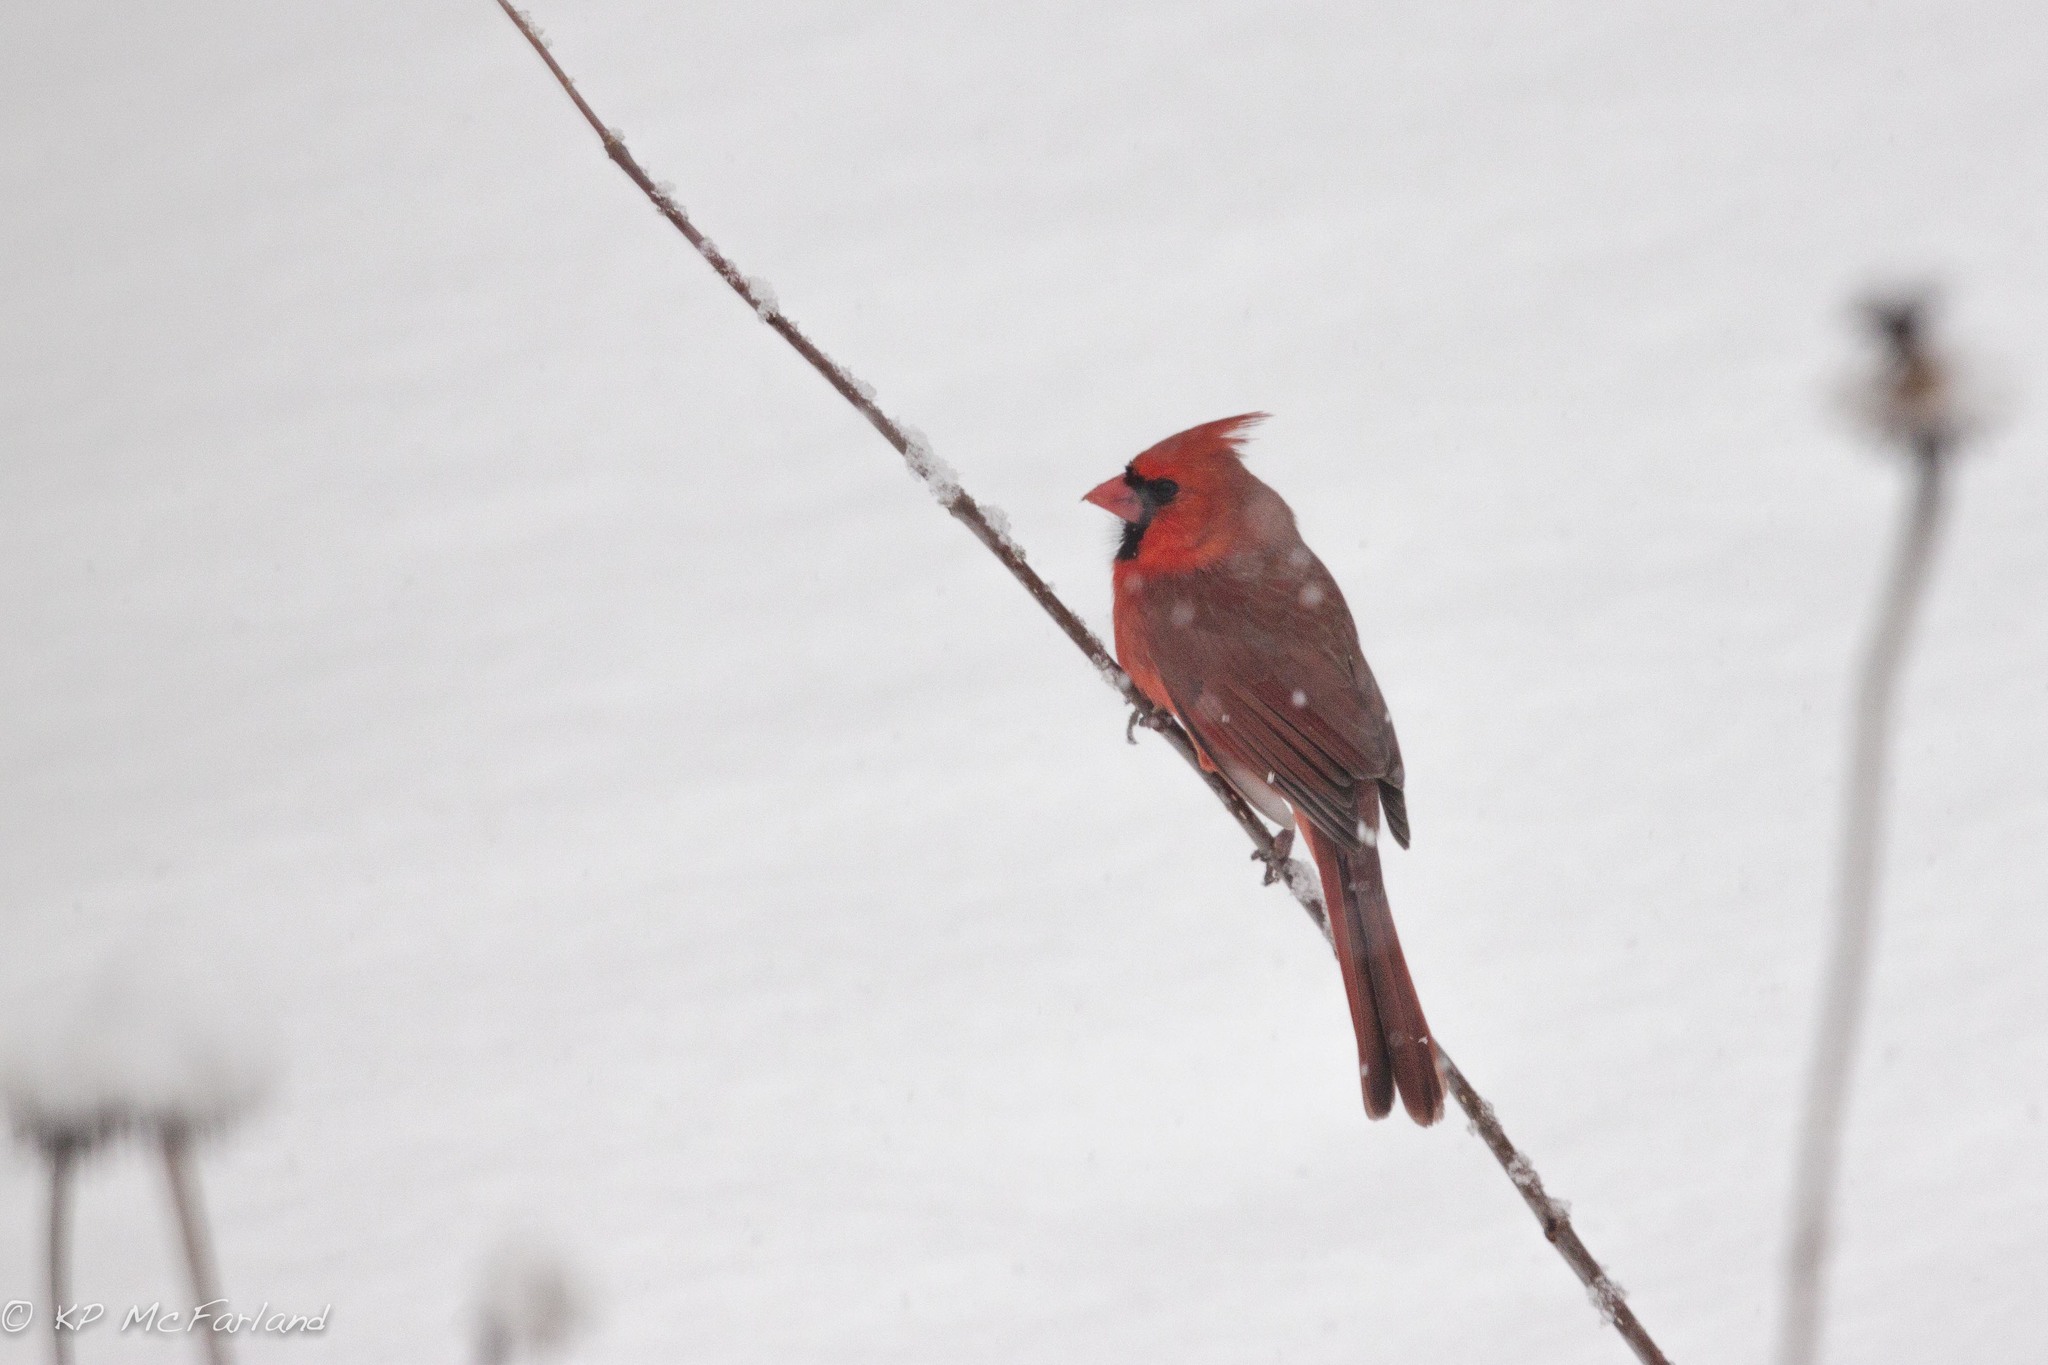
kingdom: Animalia
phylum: Chordata
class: Aves
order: Passeriformes
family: Cardinalidae
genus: Cardinalis
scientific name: Cardinalis cardinalis
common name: Northern cardinal
